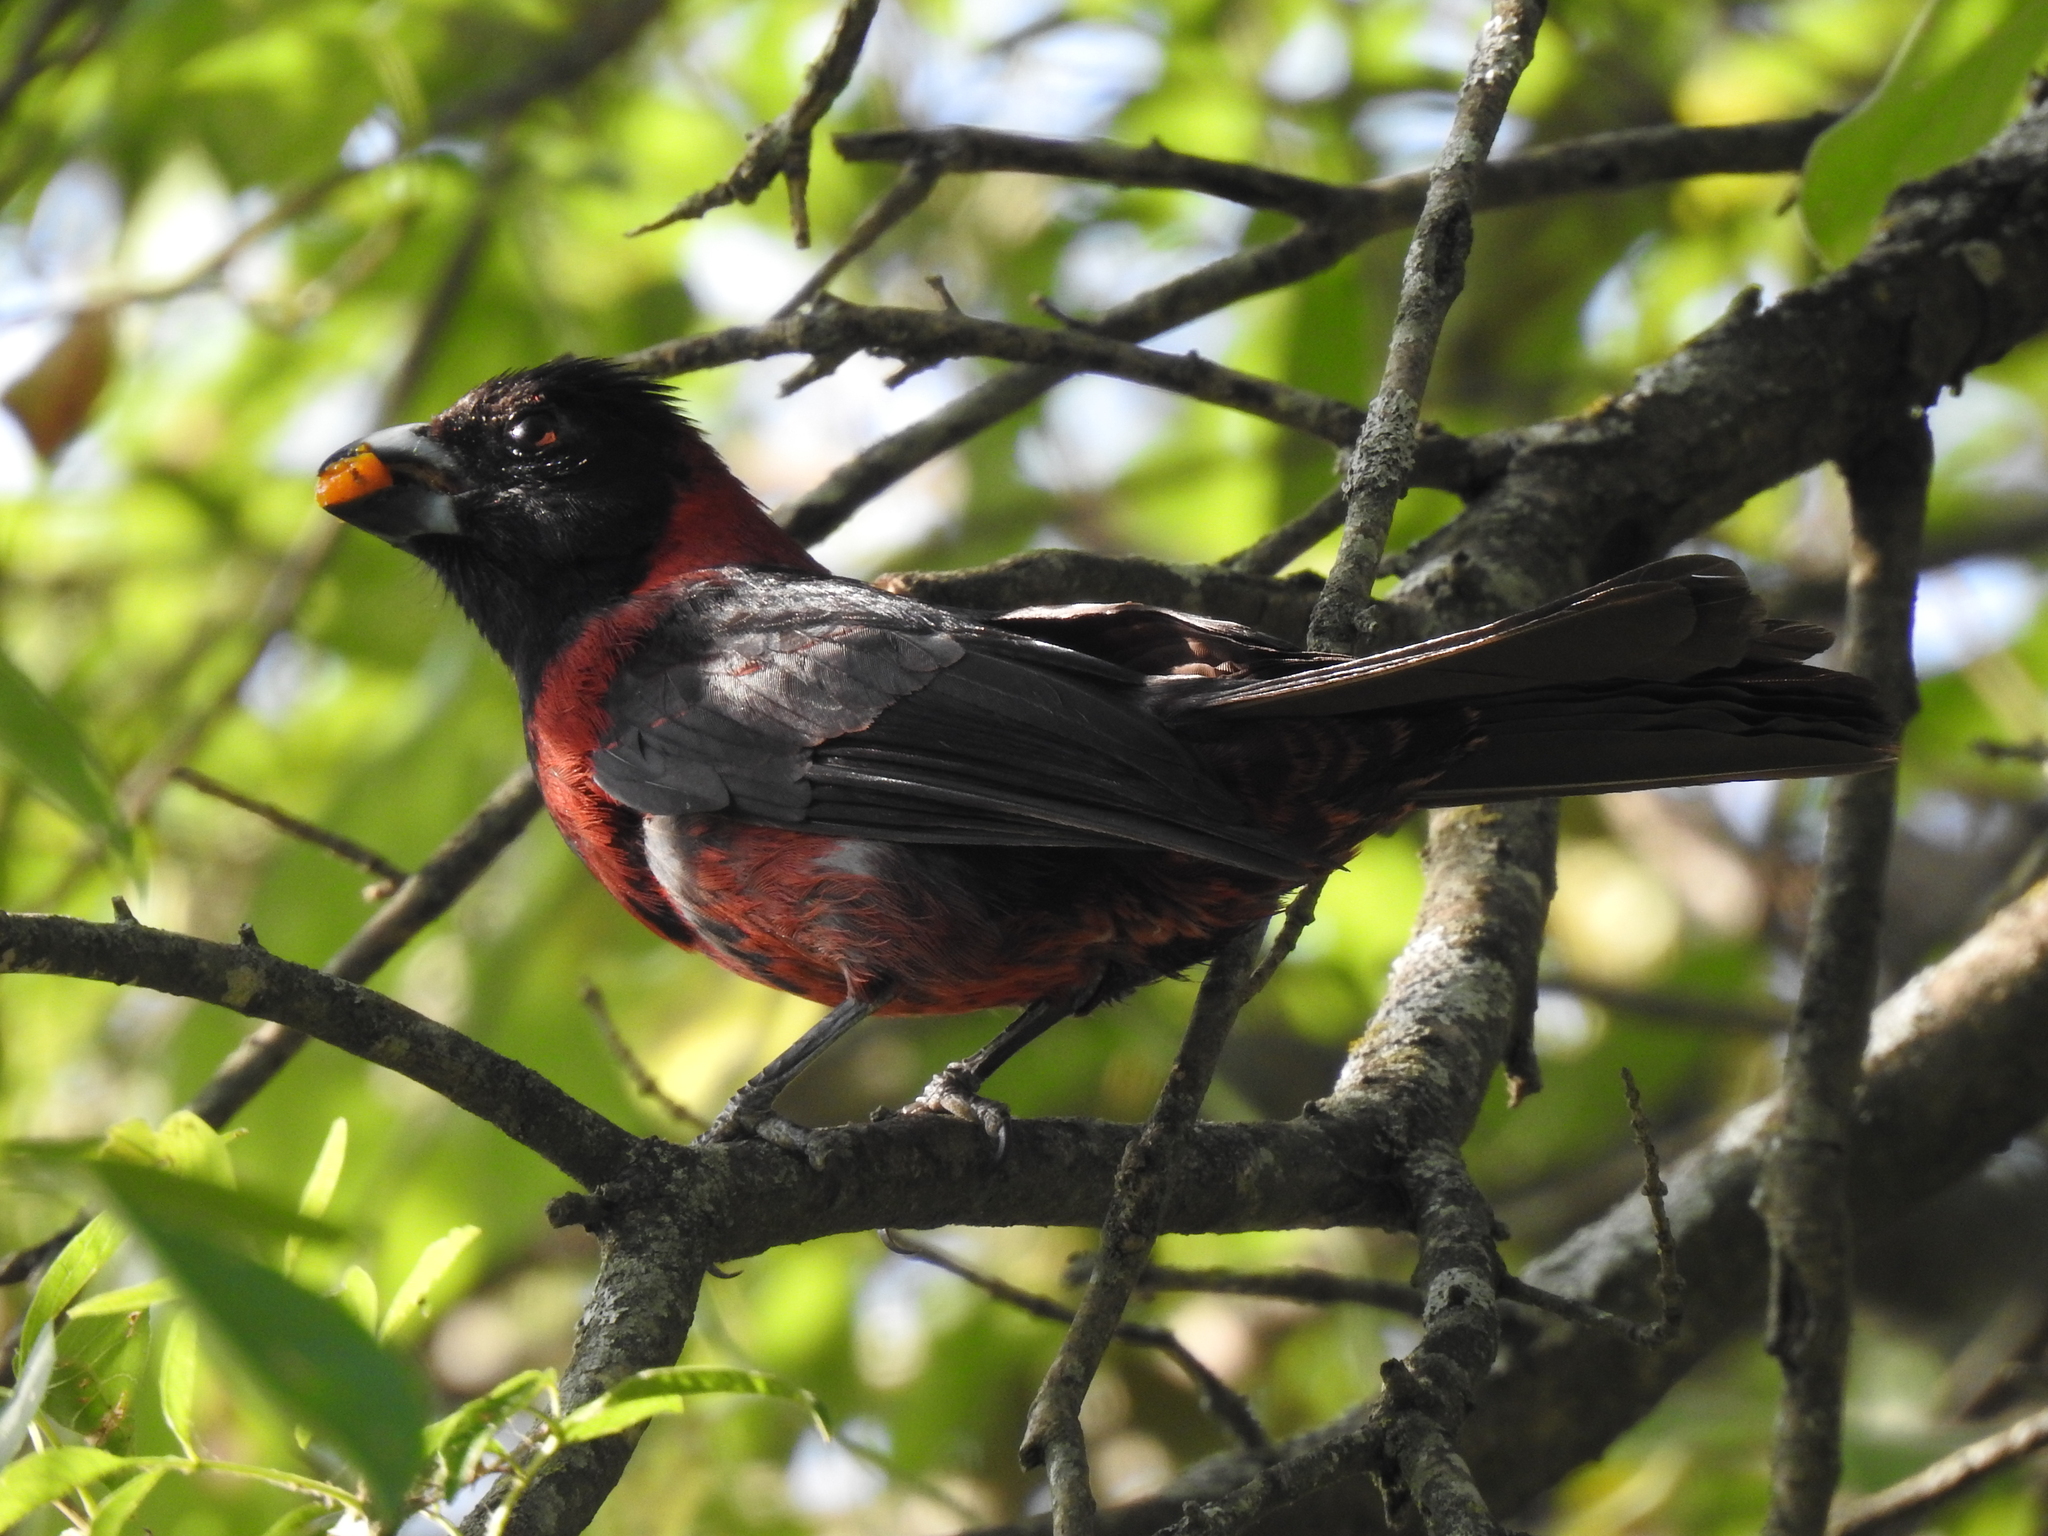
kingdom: Animalia
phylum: Chordata
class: Aves
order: Passeriformes
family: Cardinalidae
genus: Rhodothraupis
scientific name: Rhodothraupis celaeno
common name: Crimson-collared grosbeak
